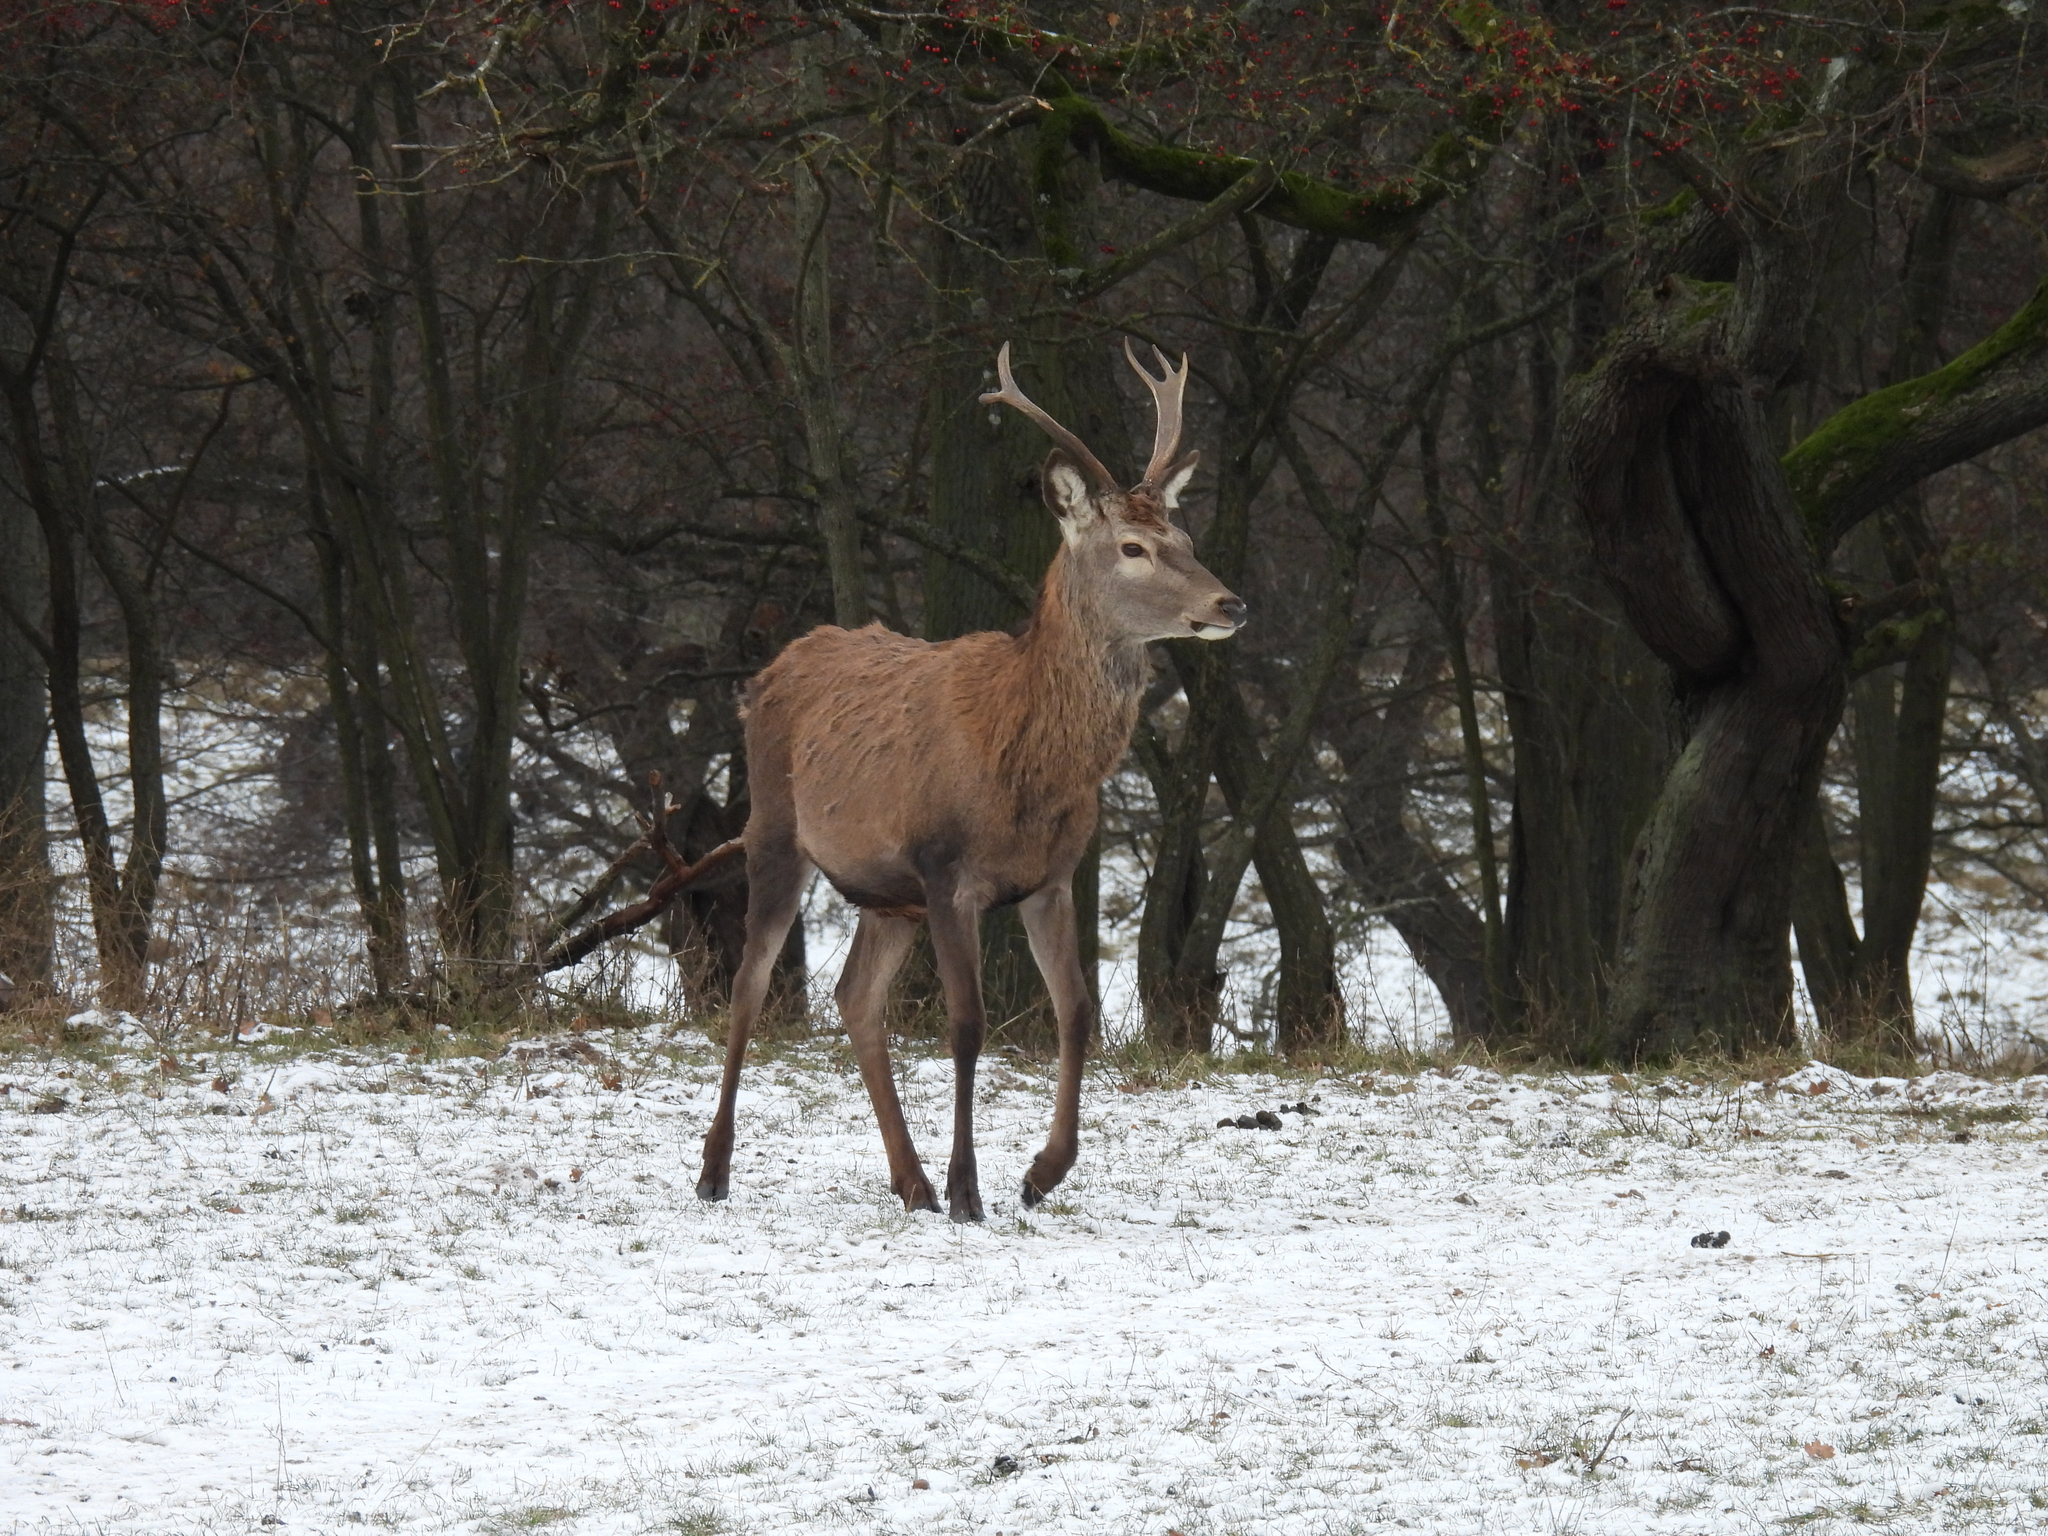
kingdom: Animalia
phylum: Chordata
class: Mammalia
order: Artiodactyla
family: Cervidae
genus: Cervus
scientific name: Cervus elaphus
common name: Red deer
